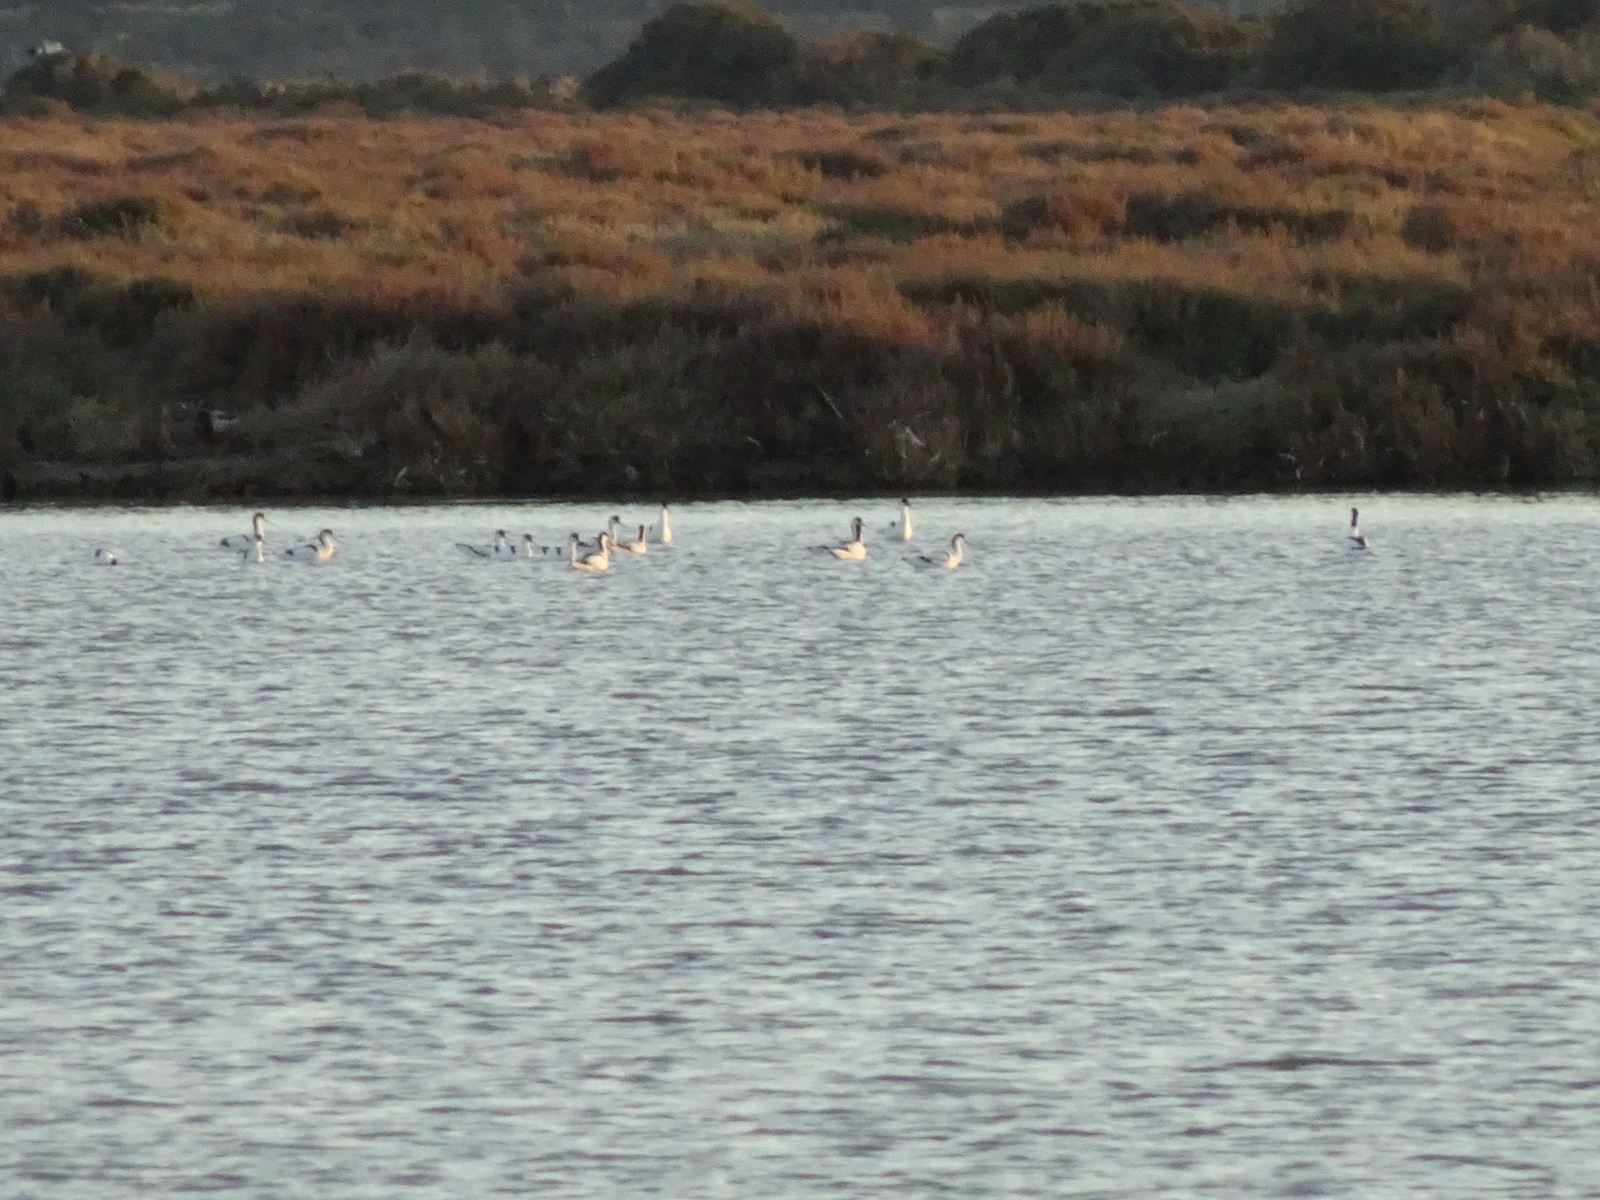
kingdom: Animalia
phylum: Chordata
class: Aves
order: Charadriiformes
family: Recurvirostridae
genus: Recurvirostra
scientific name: Recurvirostra avosetta
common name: Pied avocet
